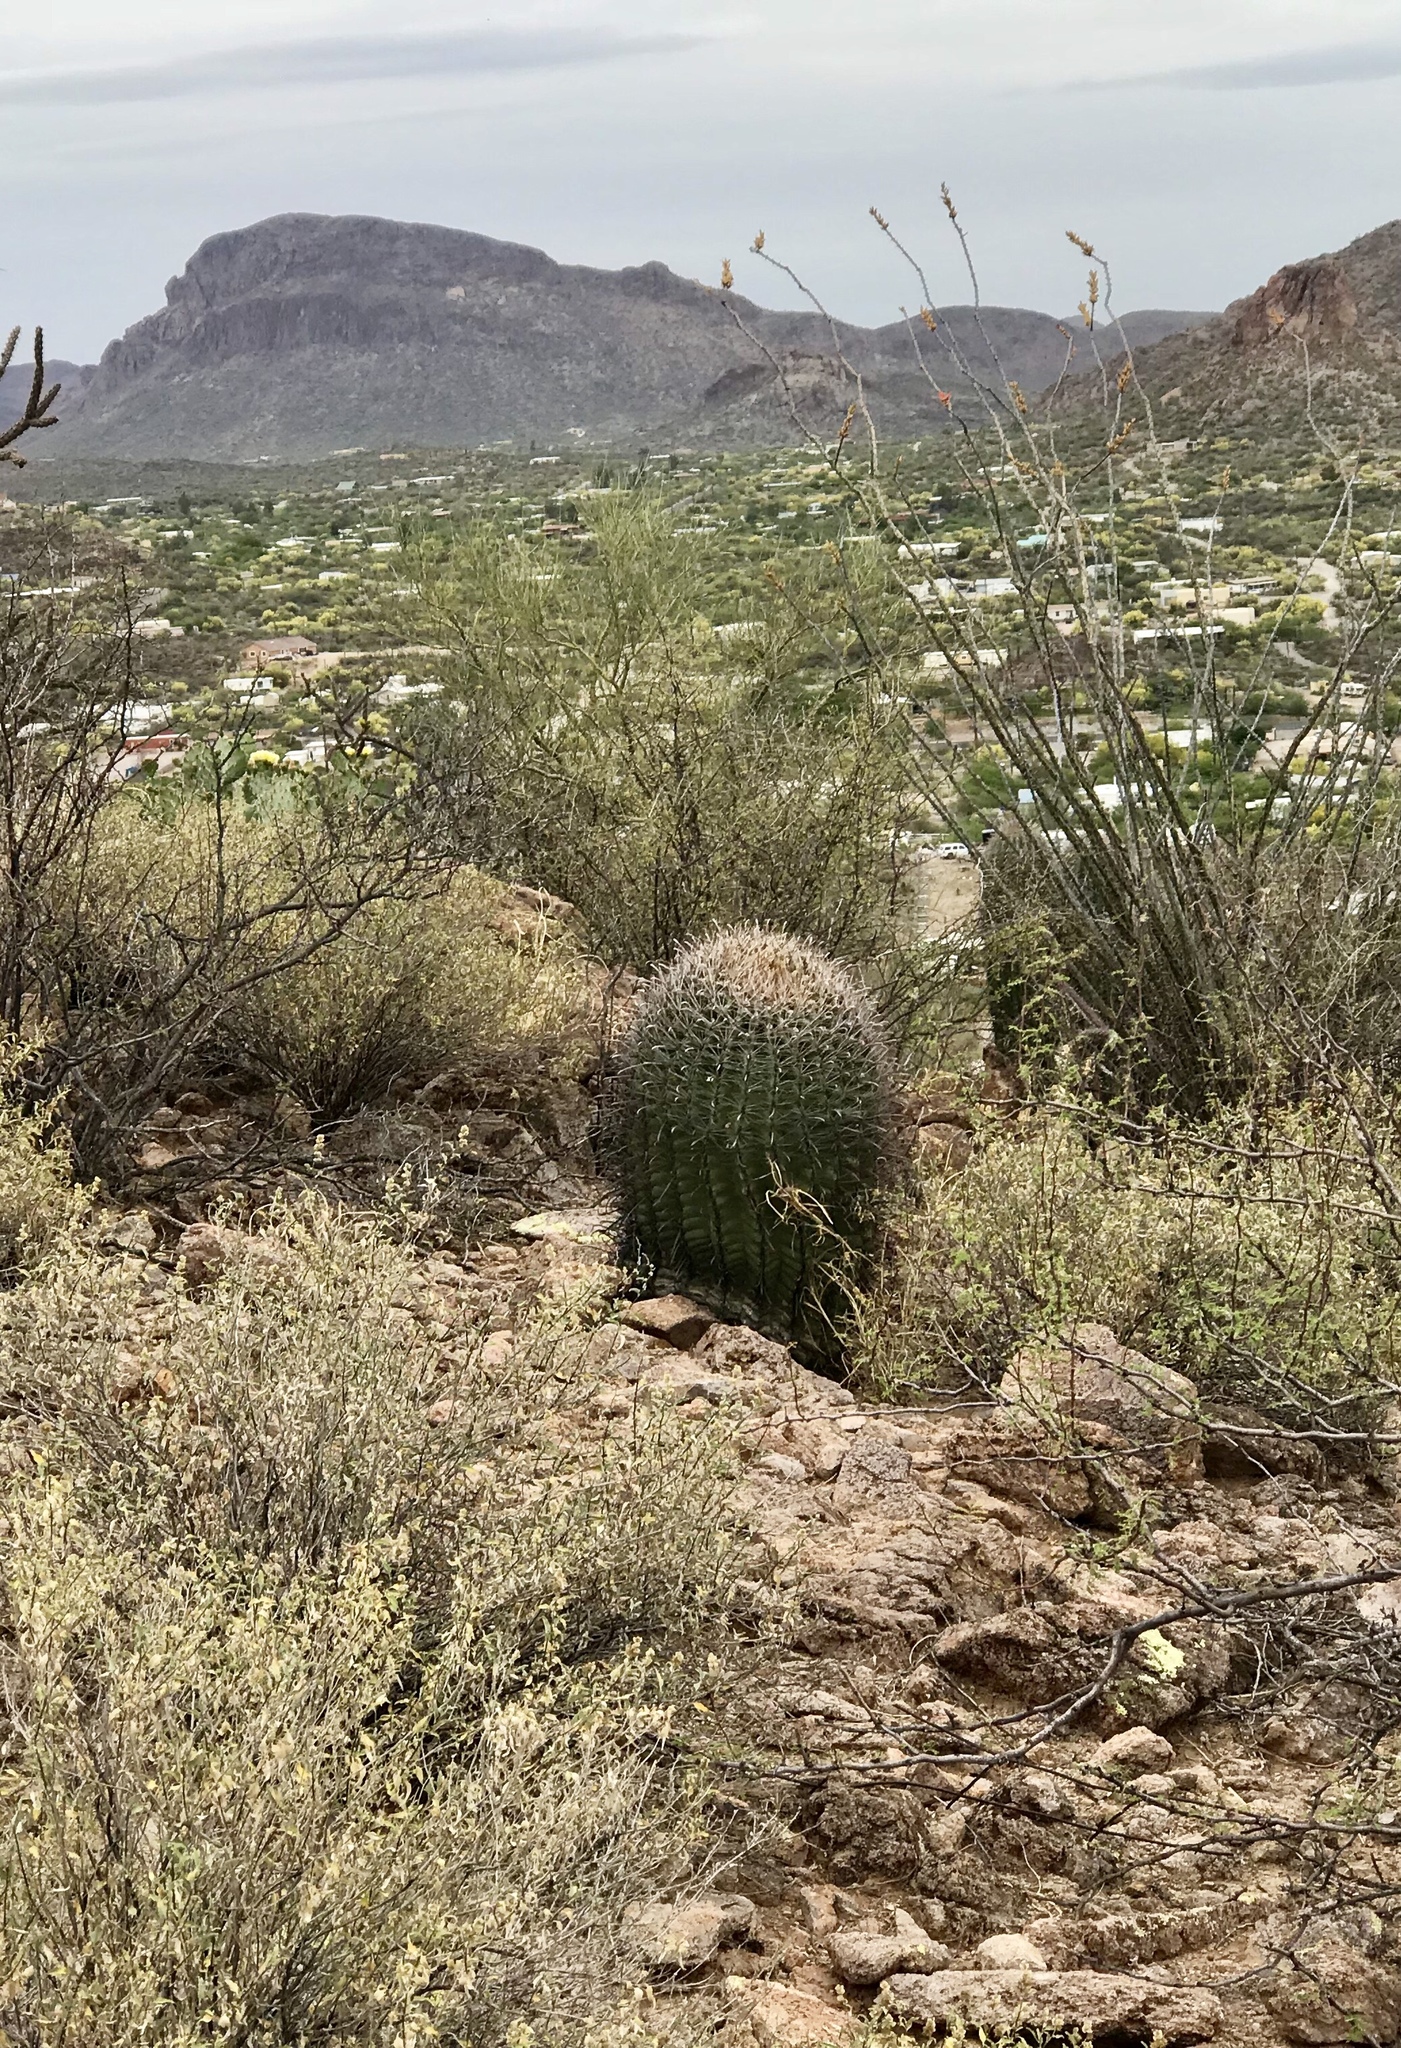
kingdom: Plantae
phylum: Tracheophyta
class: Magnoliopsida
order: Caryophyllales
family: Cactaceae
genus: Ferocactus
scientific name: Ferocactus wislizeni
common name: Candy barrel cactus
